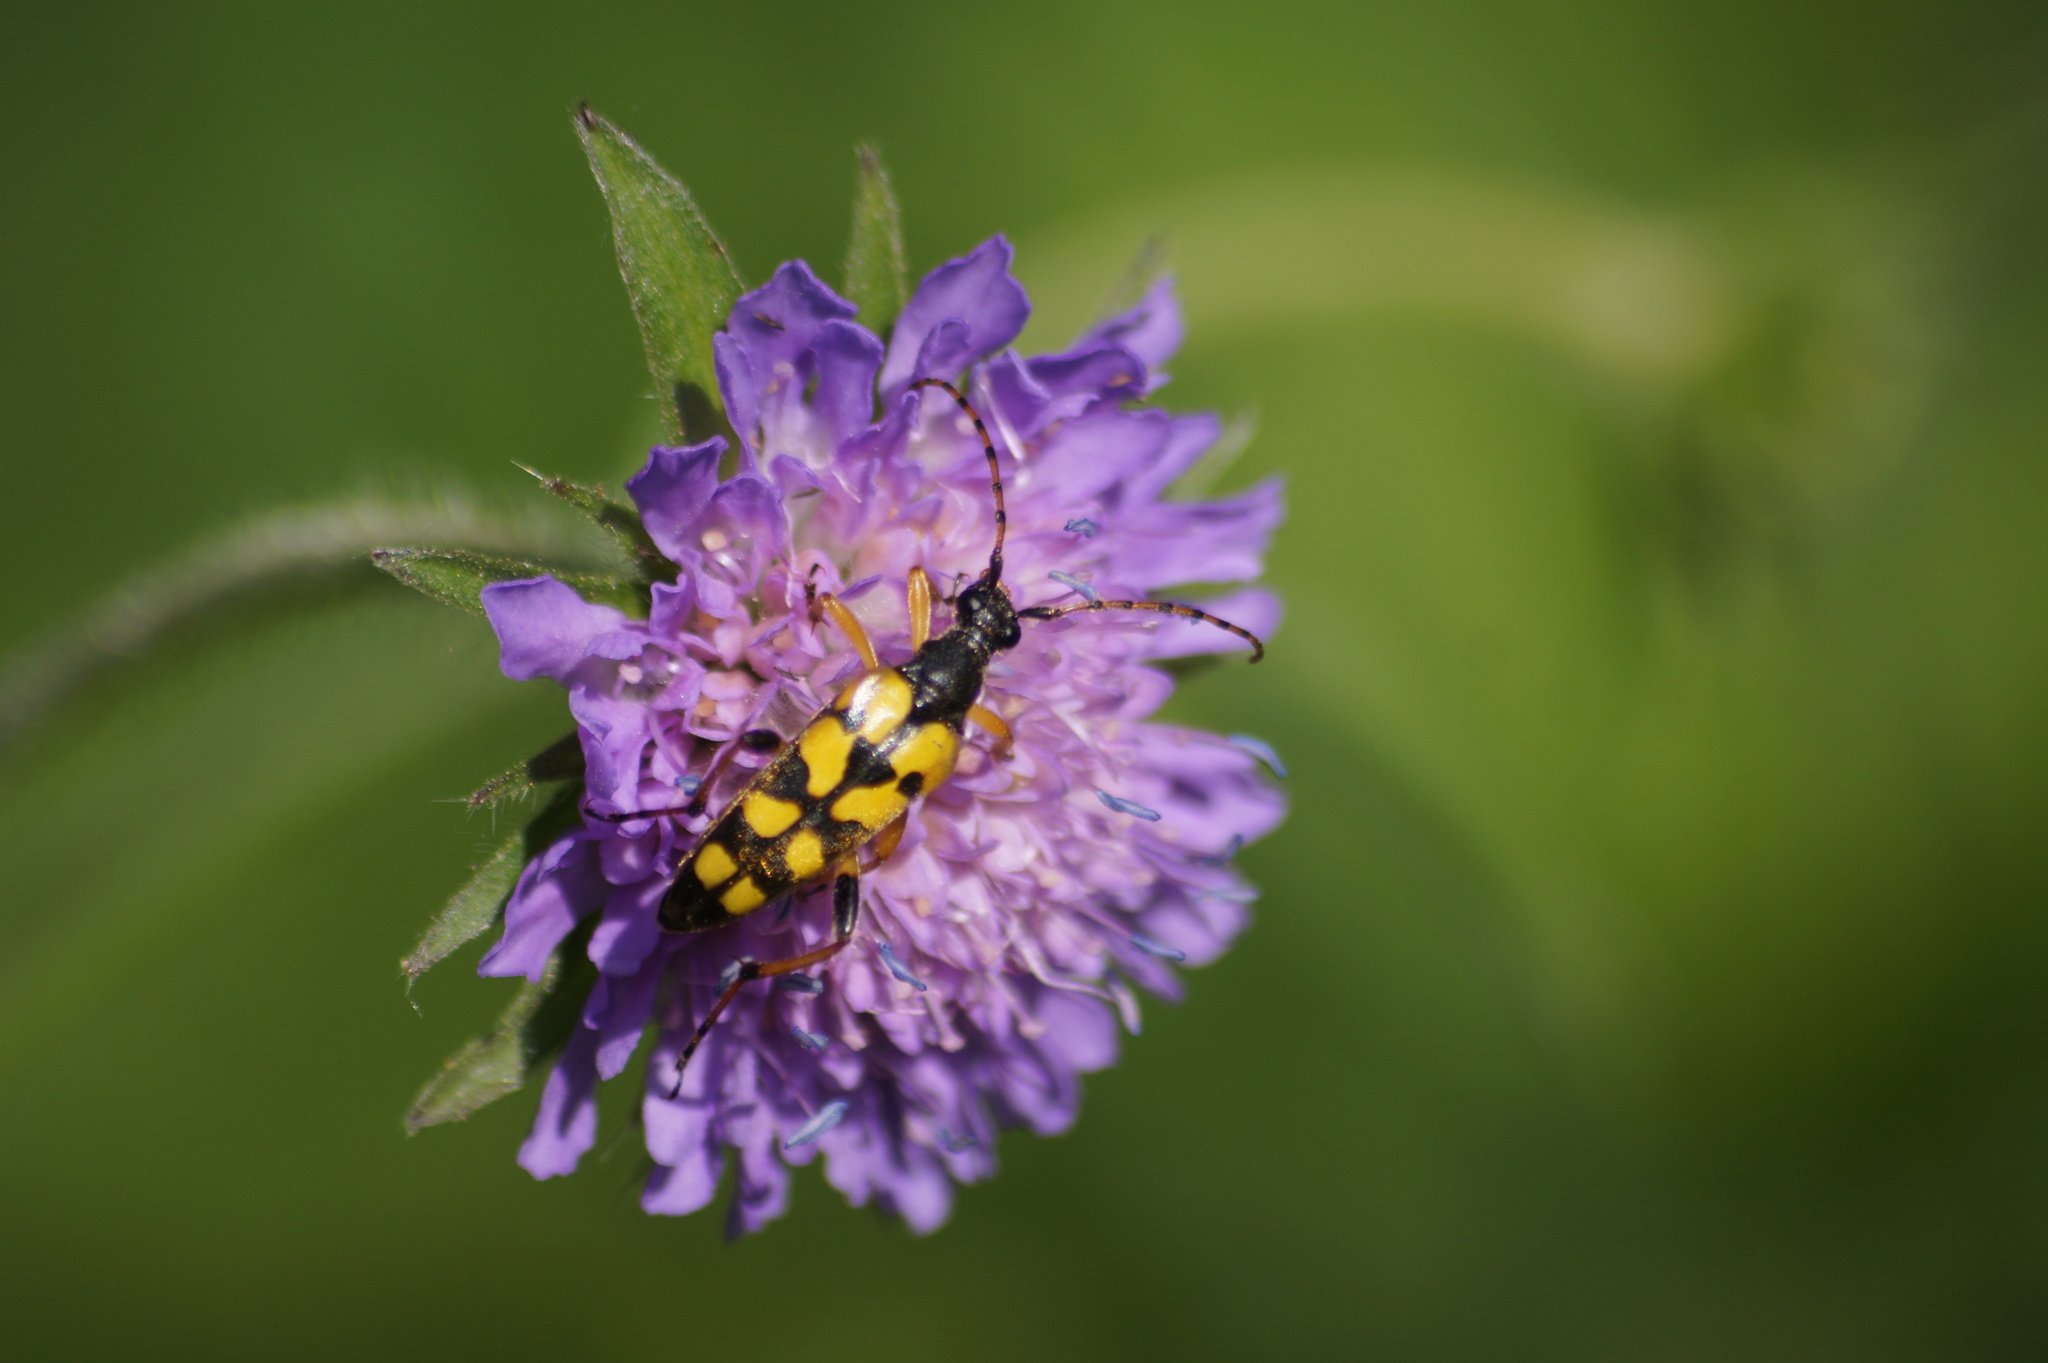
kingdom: Animalia
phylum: Arthropoda
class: Insecta
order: Coleoptera
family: Cerambycidae
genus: Rutpela
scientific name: Rutpela maculata
